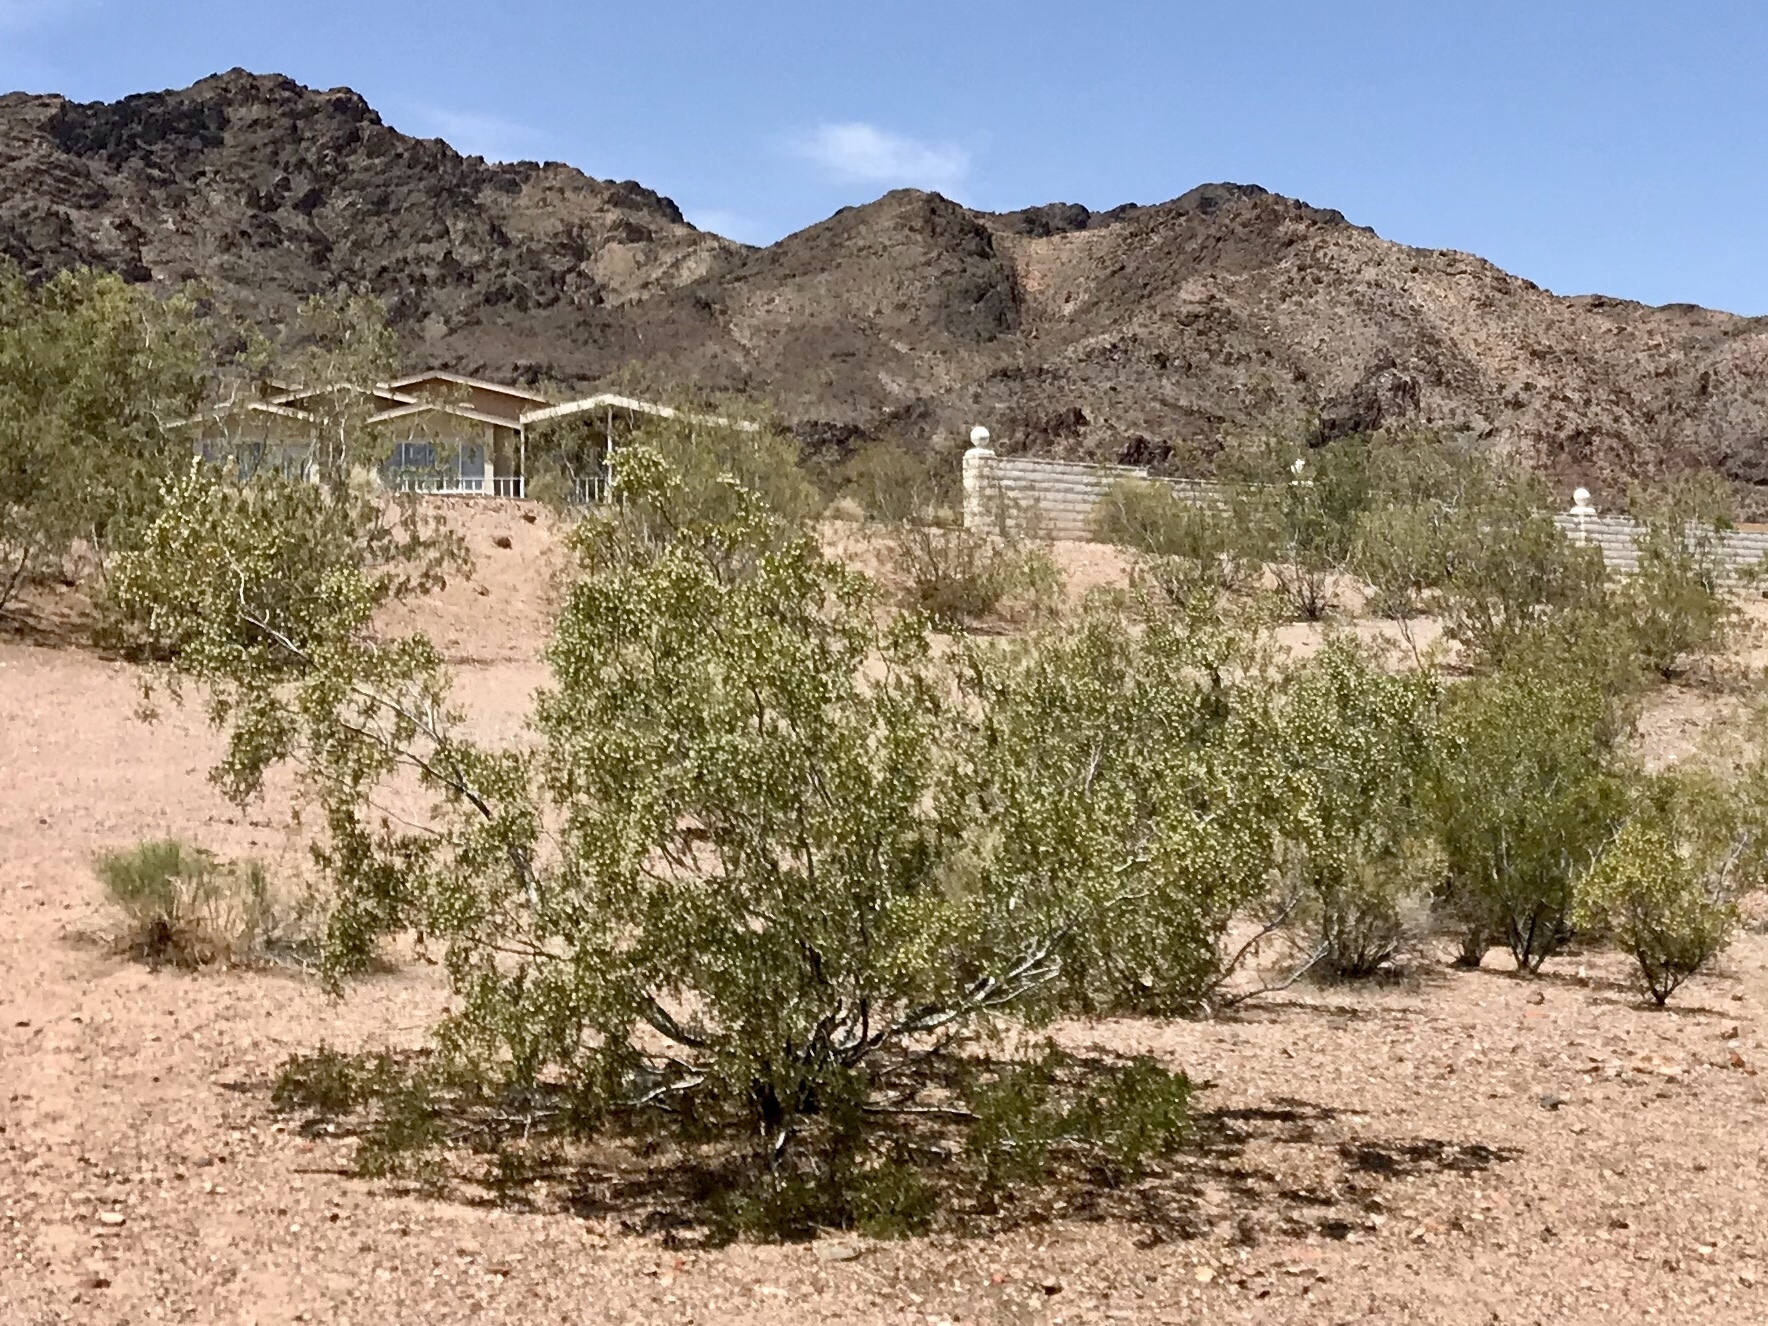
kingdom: Plantae
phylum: Tracheophyta
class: Magnoliopsida
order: Zygophyllales
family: Zygophyllaceae
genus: Larrea
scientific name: Larrea tridentata
